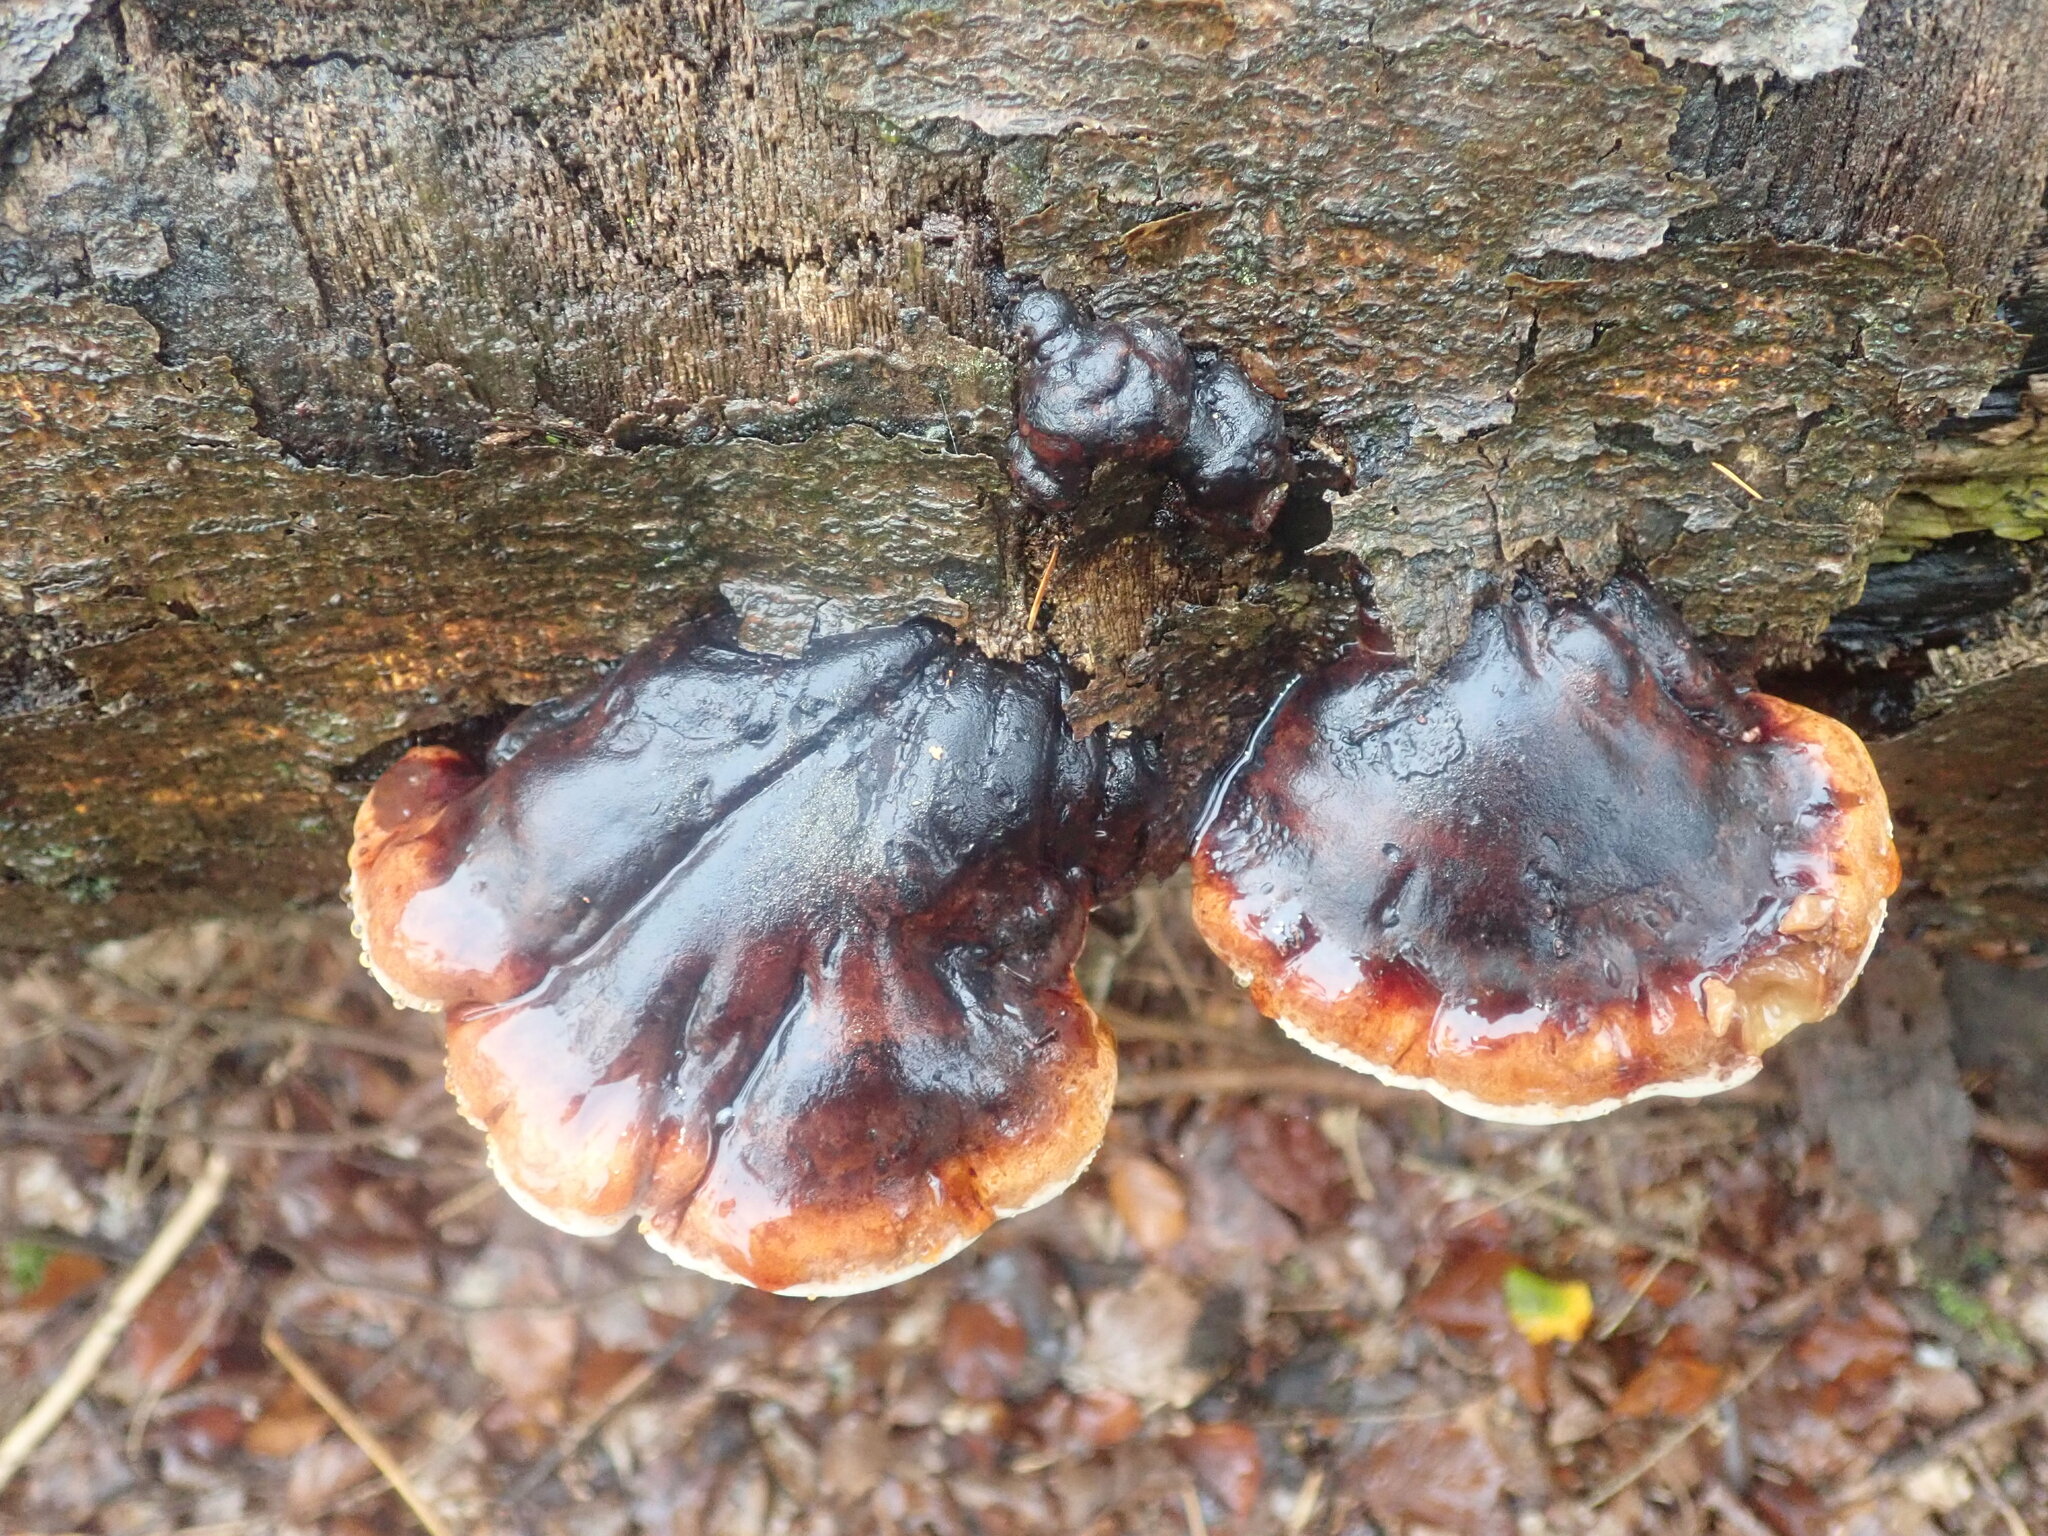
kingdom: Fungi
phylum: Basidiomycota
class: Agaricomycetes
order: Polyporales
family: Fomitopsidaceae
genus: Fomitopsis
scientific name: Fomitopsis pinicola
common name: Red-belted bracket
